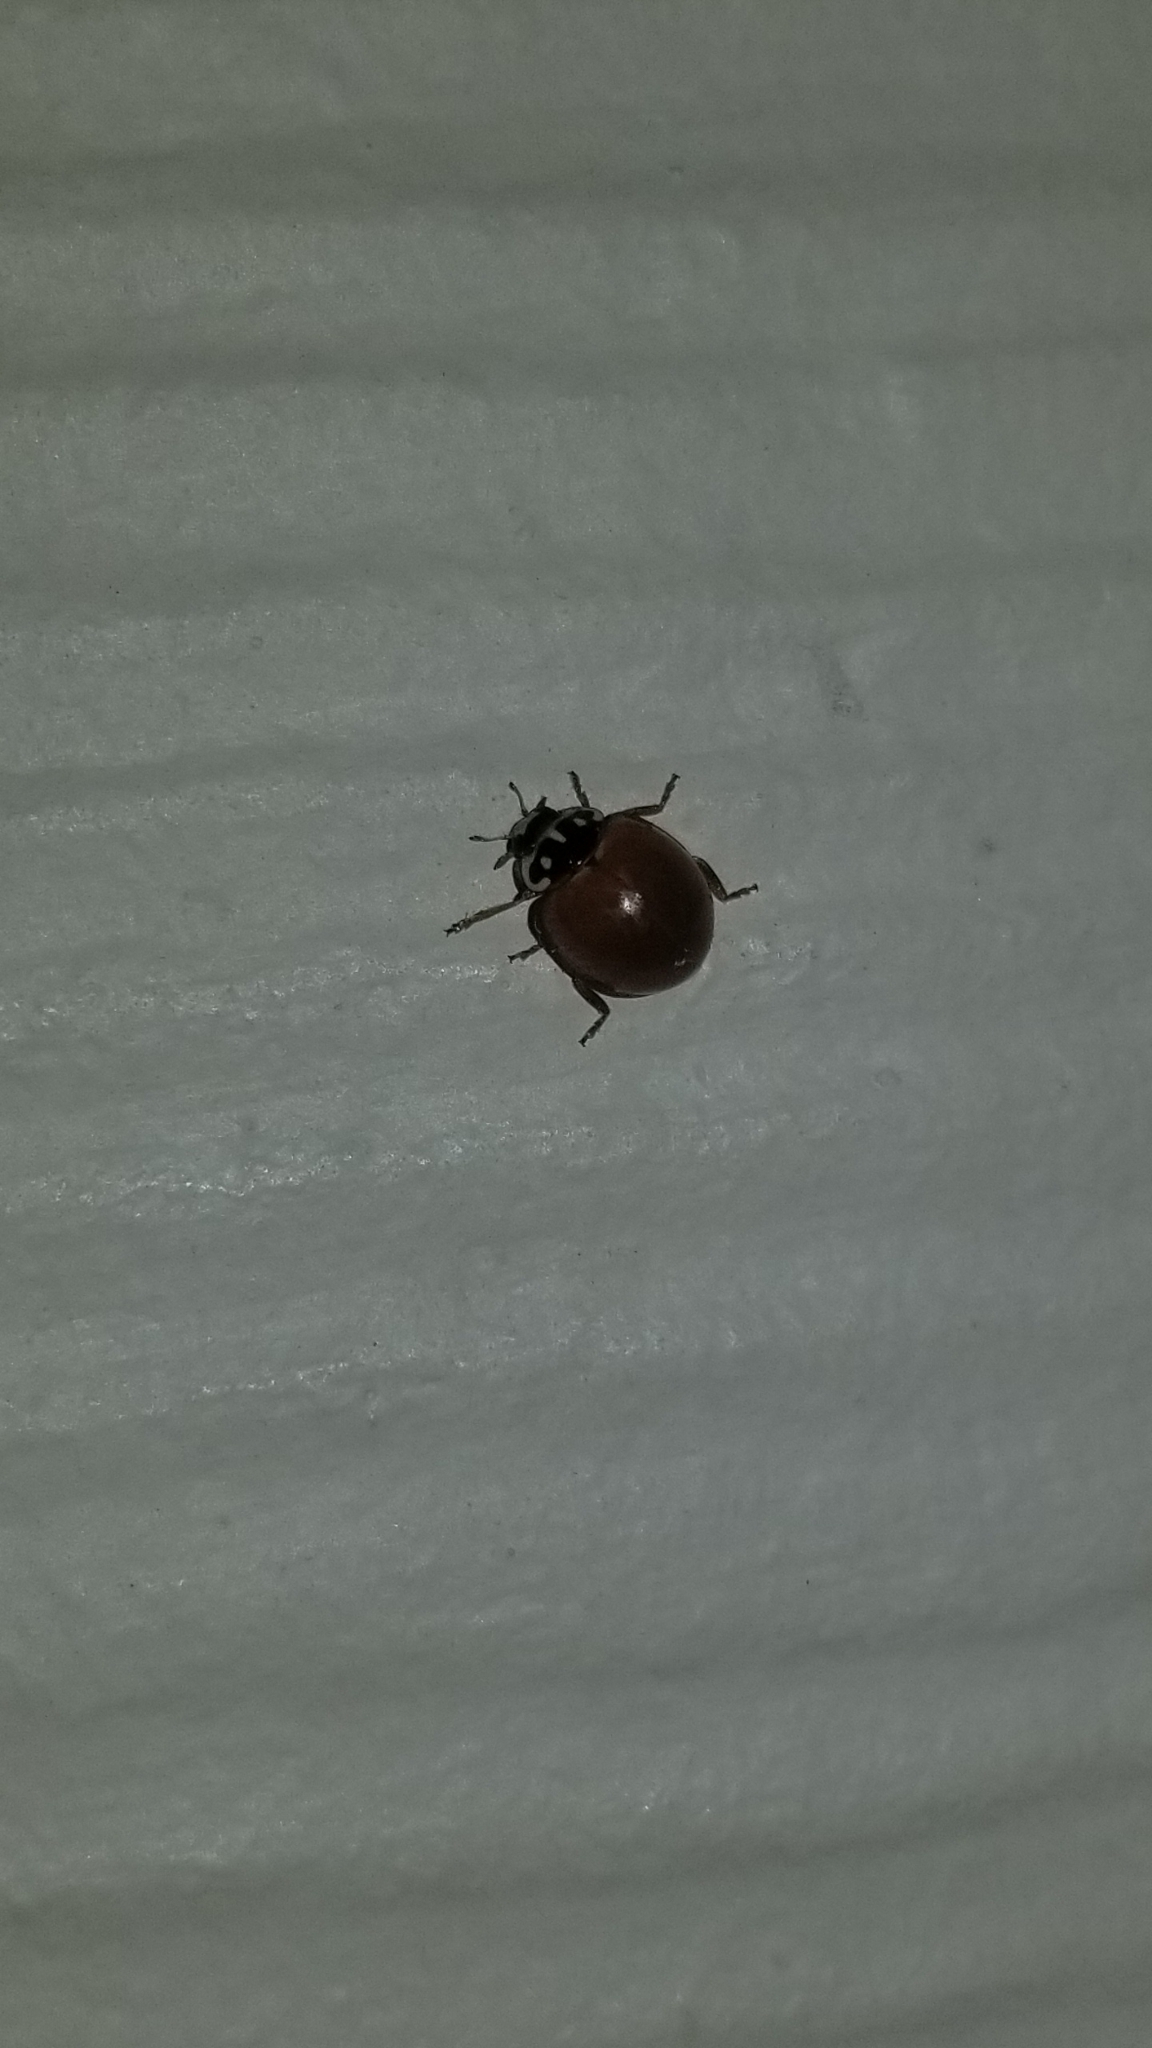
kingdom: Animalia
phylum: Arthropoda
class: Insecta
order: Coleoptera
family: Coccinellidae
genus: Cycloneda
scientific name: Cycloneda sanguinea
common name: Ladybird beetle
